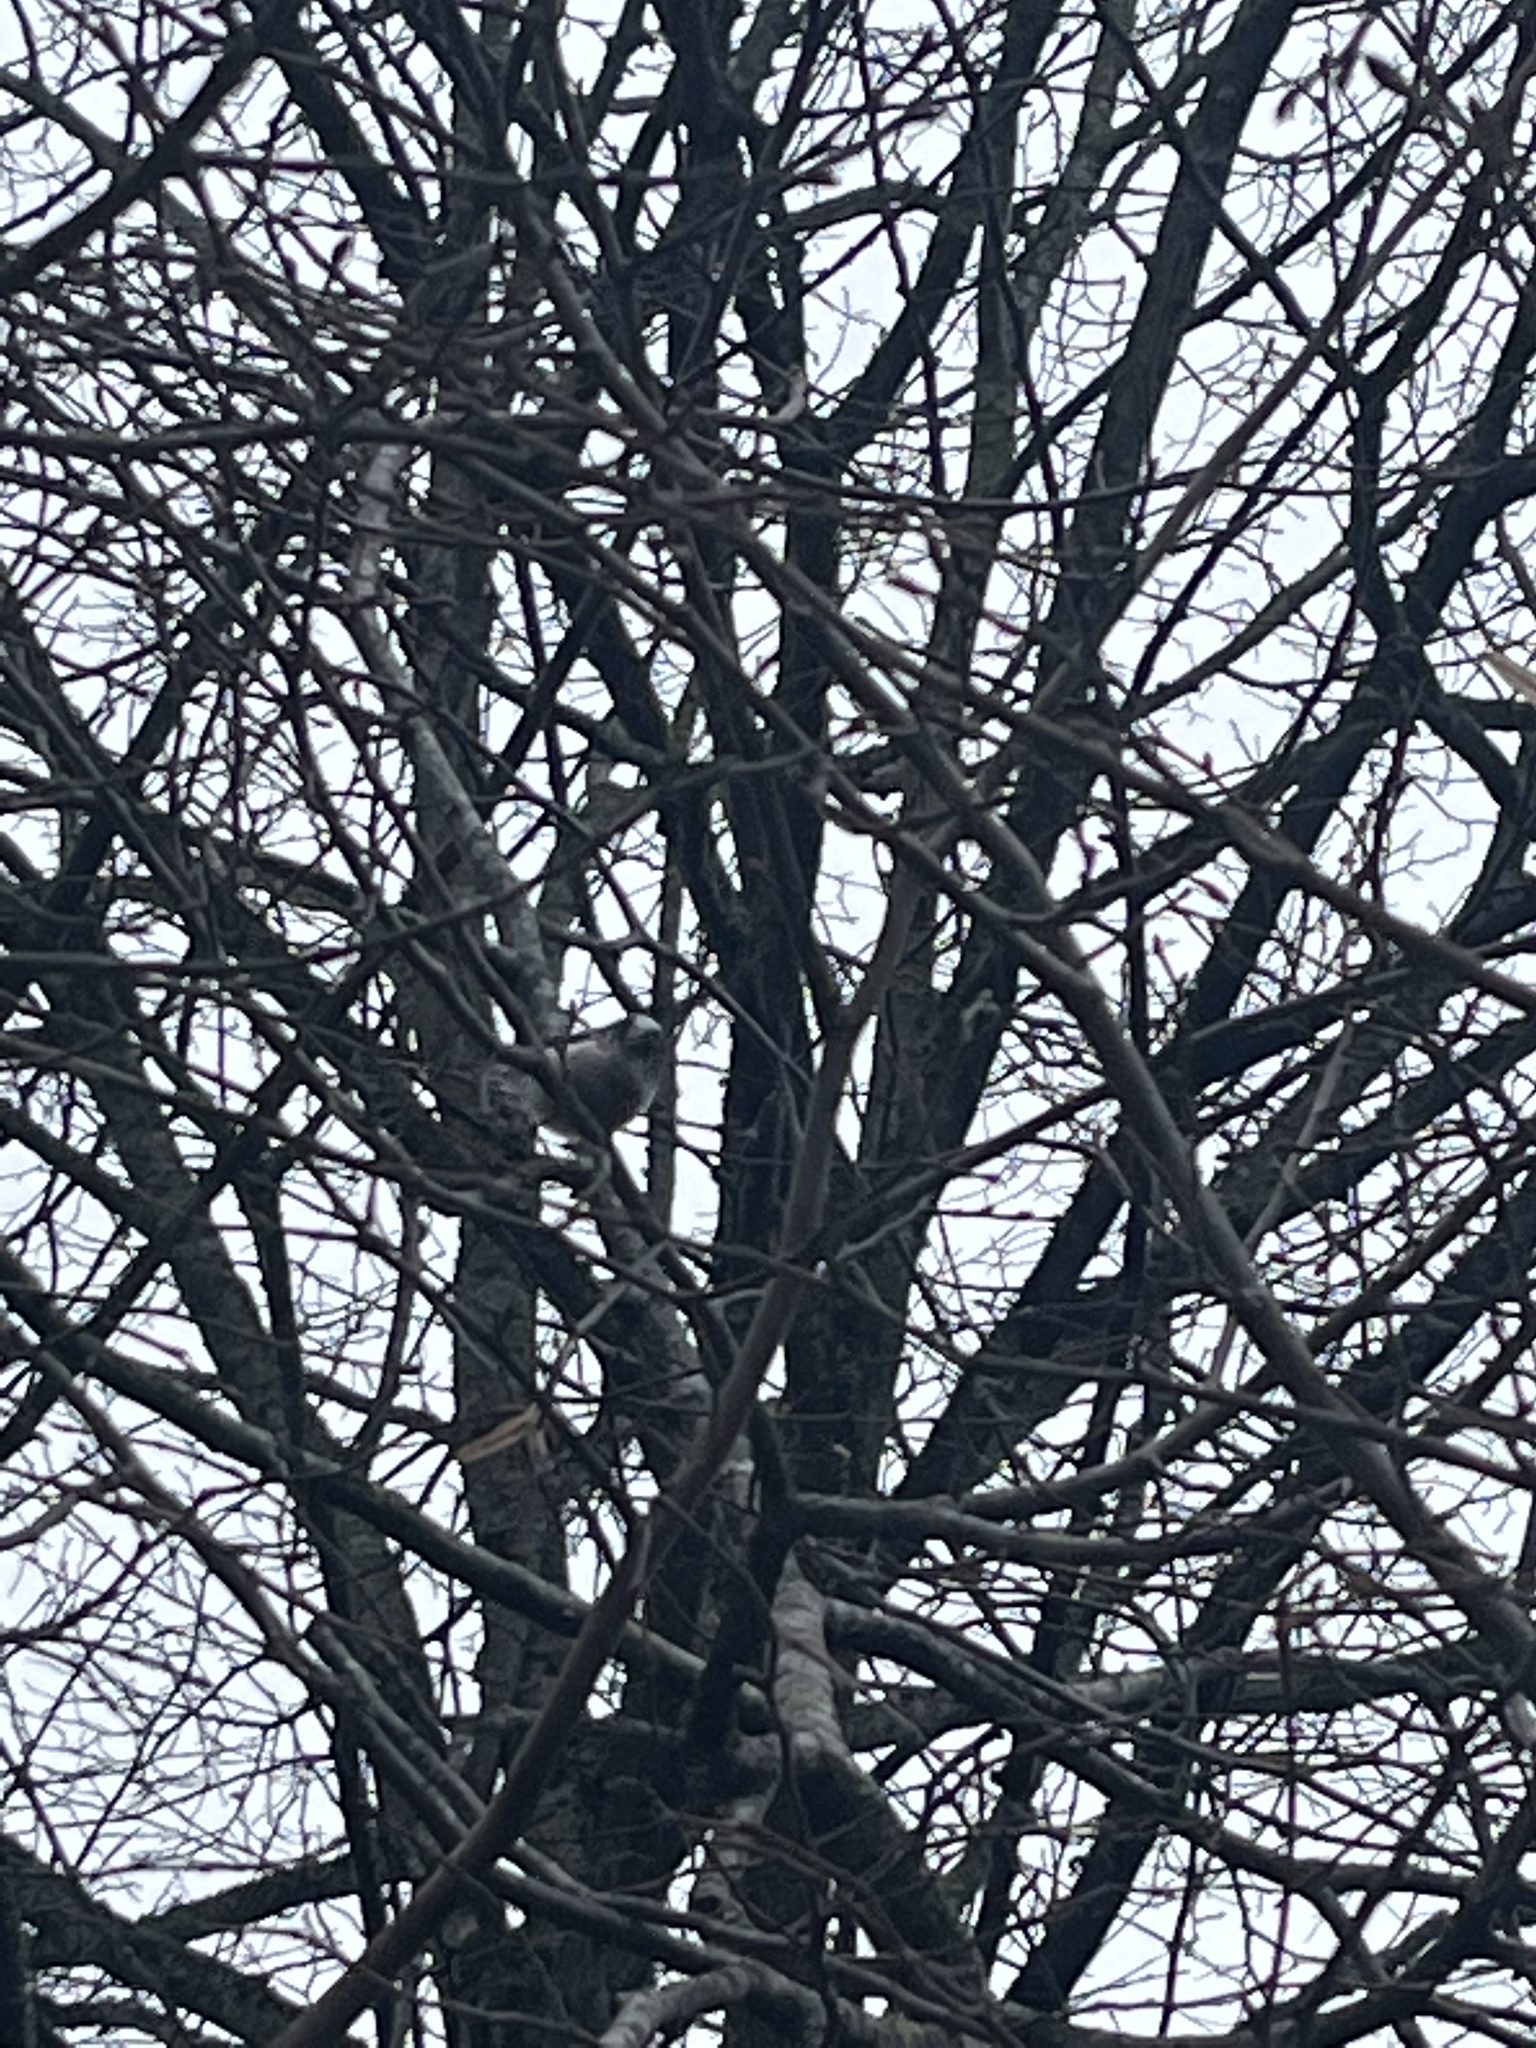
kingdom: Animalia
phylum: Chordata
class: Aves
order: Passeriformes
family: Aegithalidae
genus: Aegithalos
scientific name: Aegithalos caudatus
